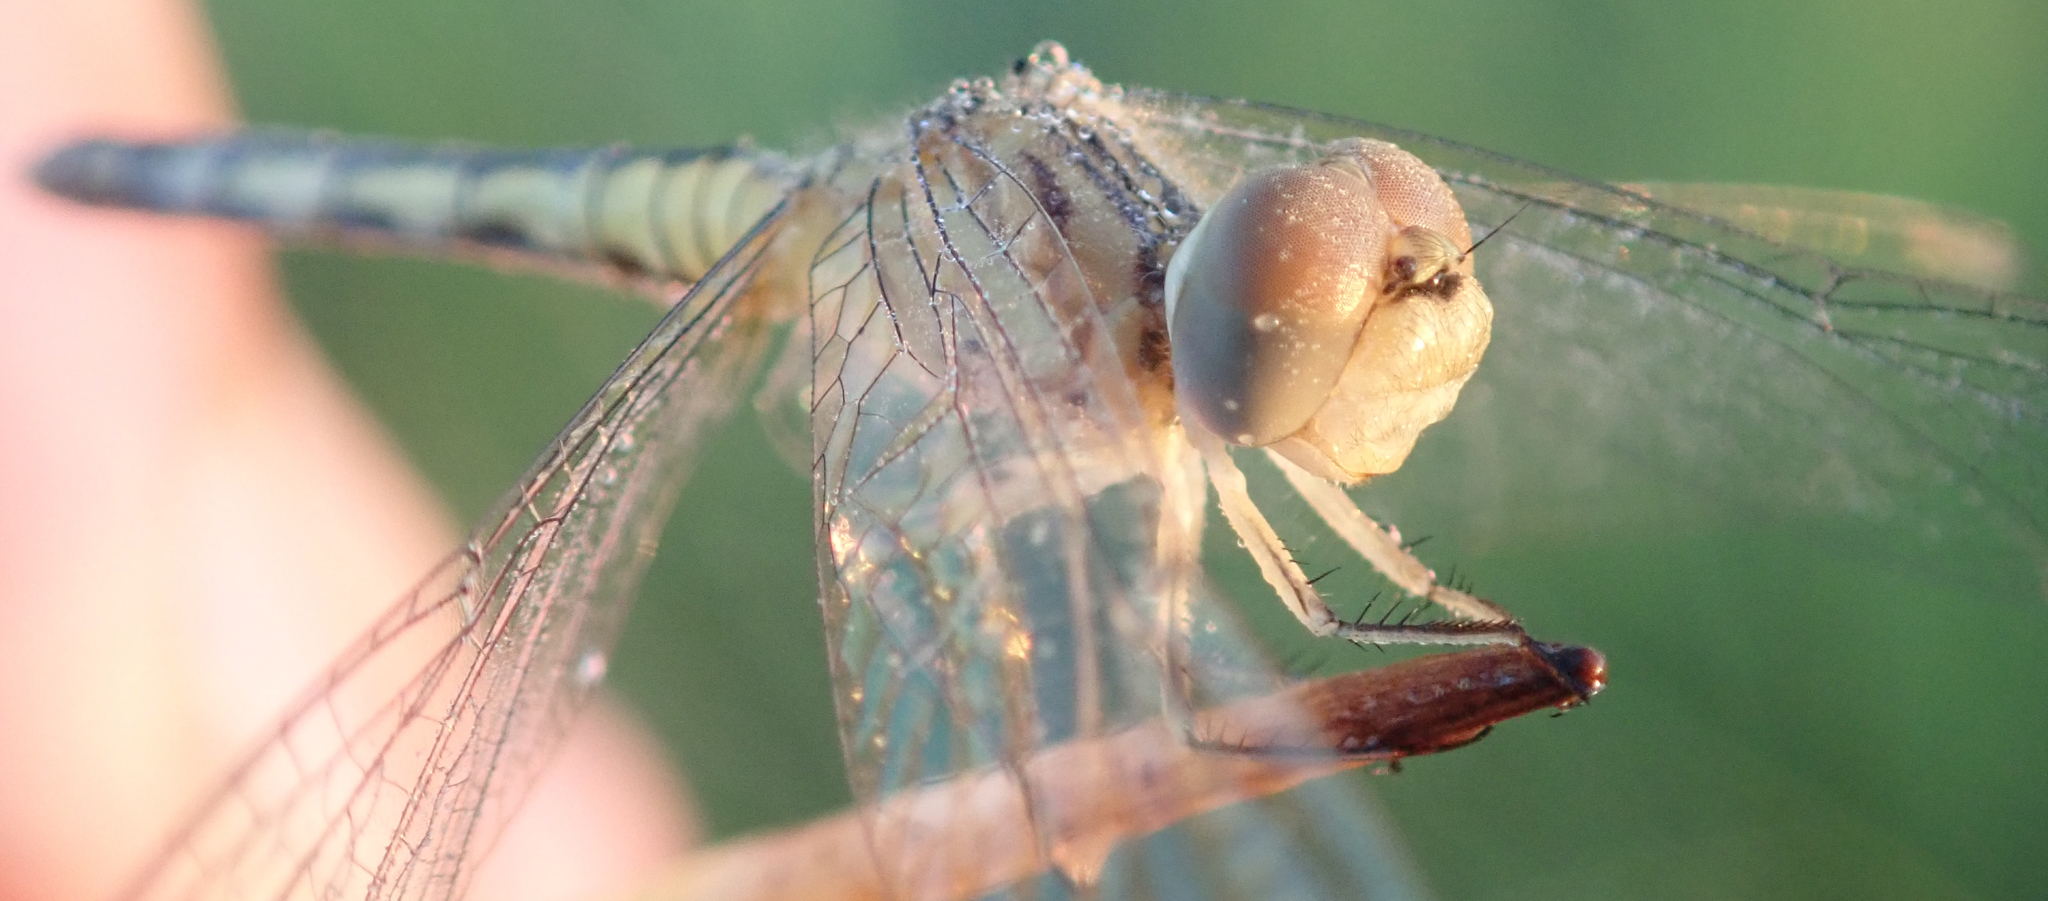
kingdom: Animalia
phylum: Arthropoda
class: Insecta
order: Odonata
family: Libellulidae
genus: Diplacodes
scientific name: Diplacodes deminuta
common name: Little percher
